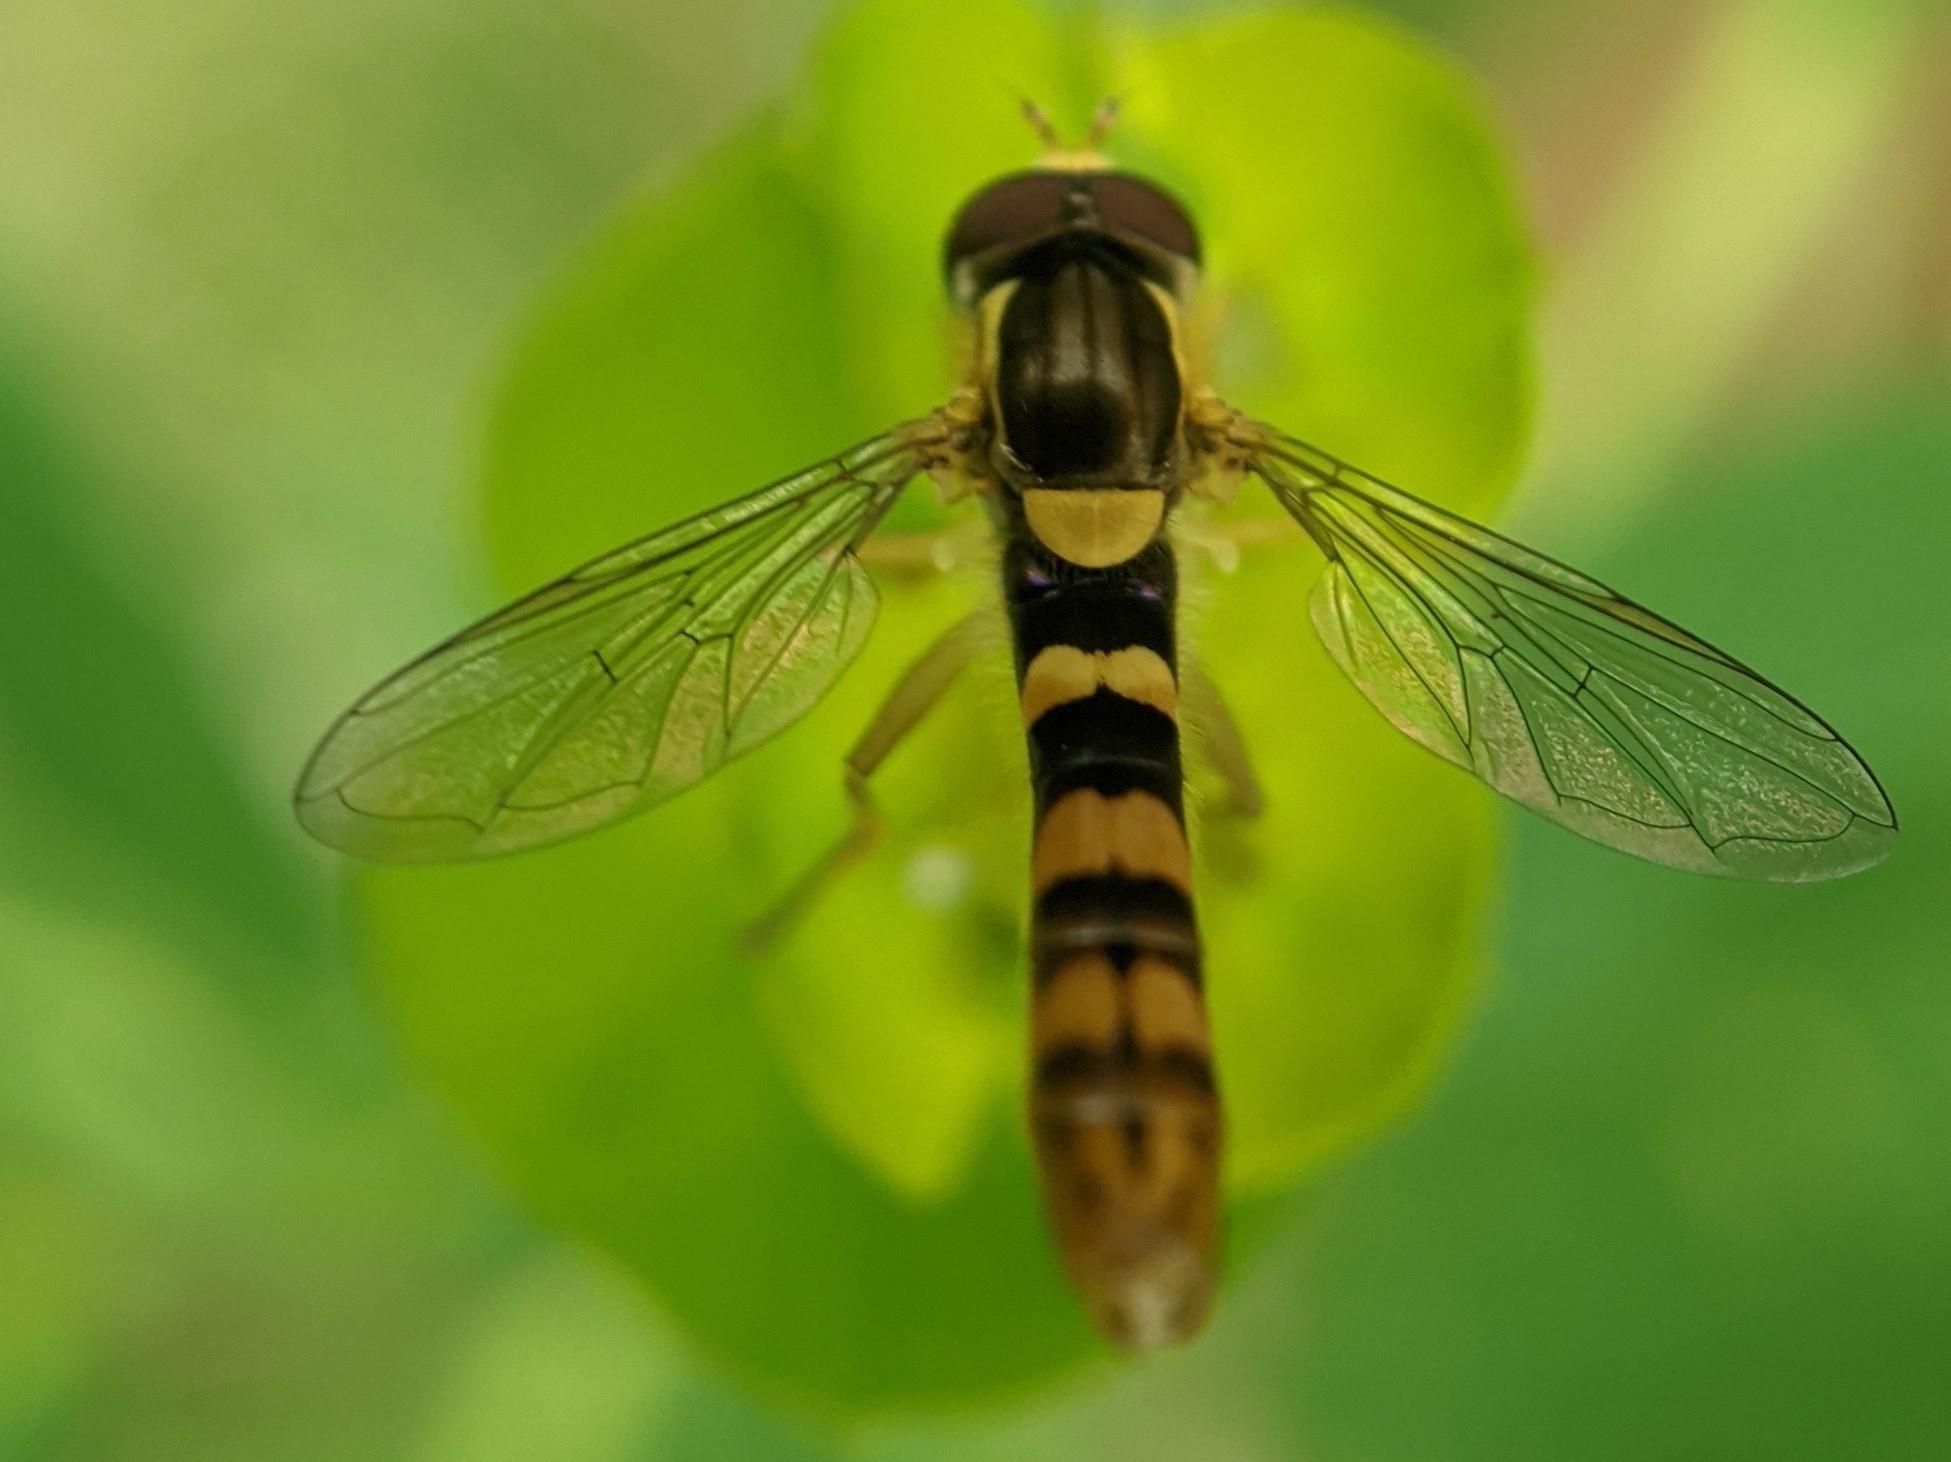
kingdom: Animalia
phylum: Arthropoda
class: Insecta
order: Diptera
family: Syrphidae
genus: Sphaerophoria
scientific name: Sphaerophoria scripta
